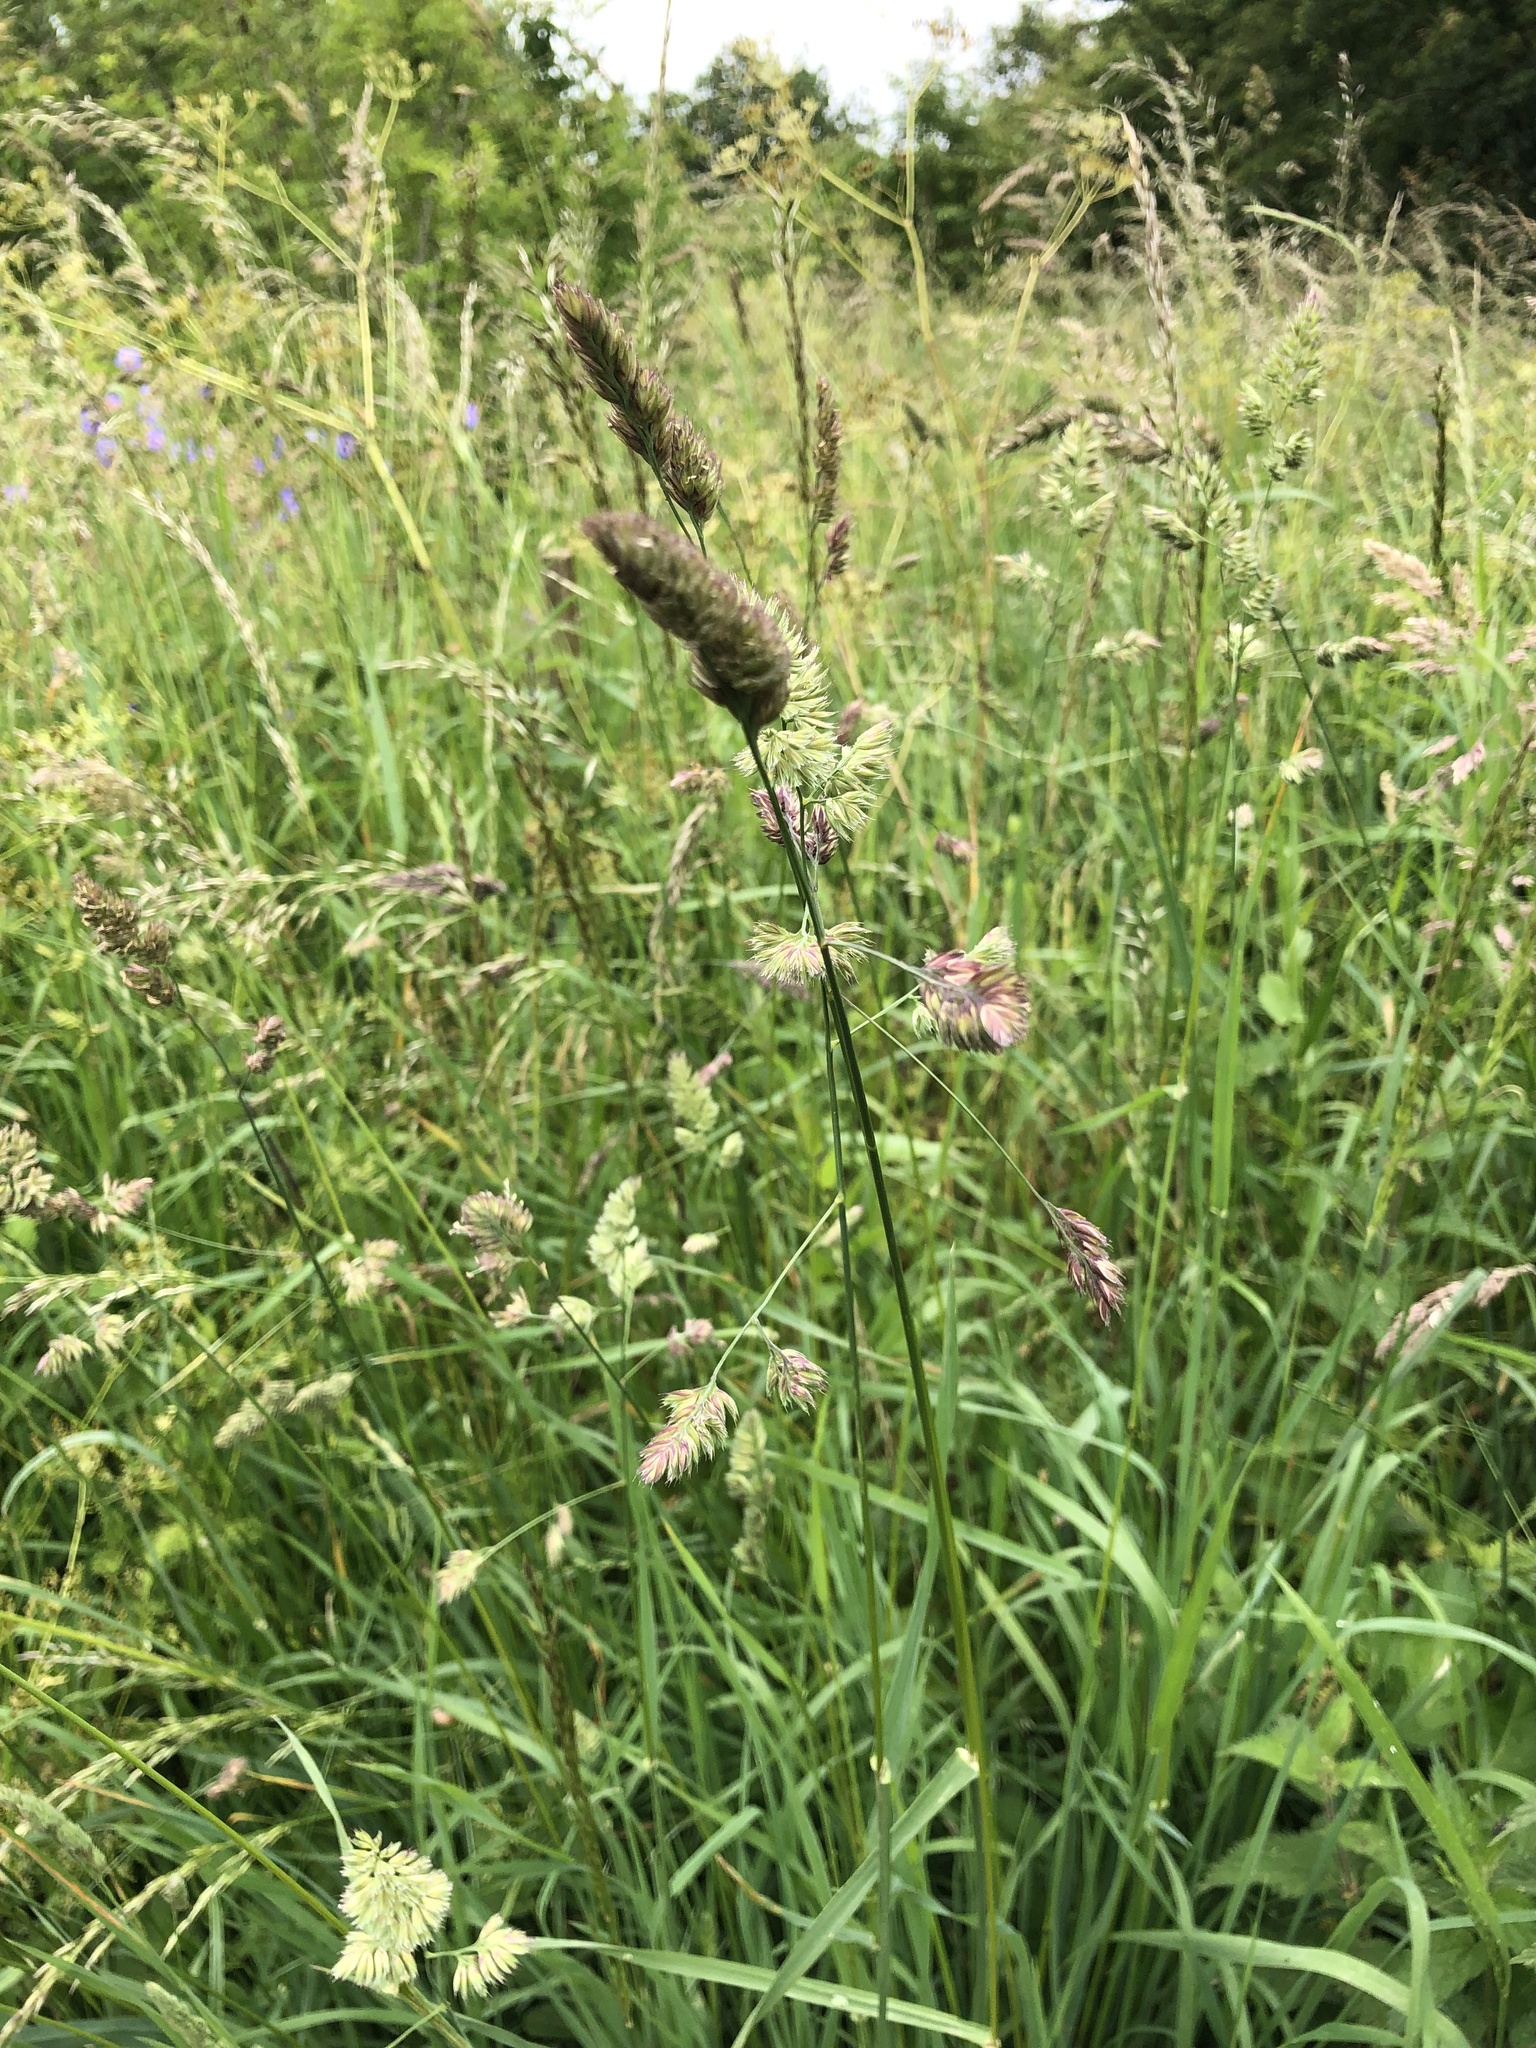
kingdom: Plantae
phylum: Tracheophyta
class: Liliopsida
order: Poales
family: Poaceae
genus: Dactylis
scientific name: Dactylis glomerata
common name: Orchardgrass
